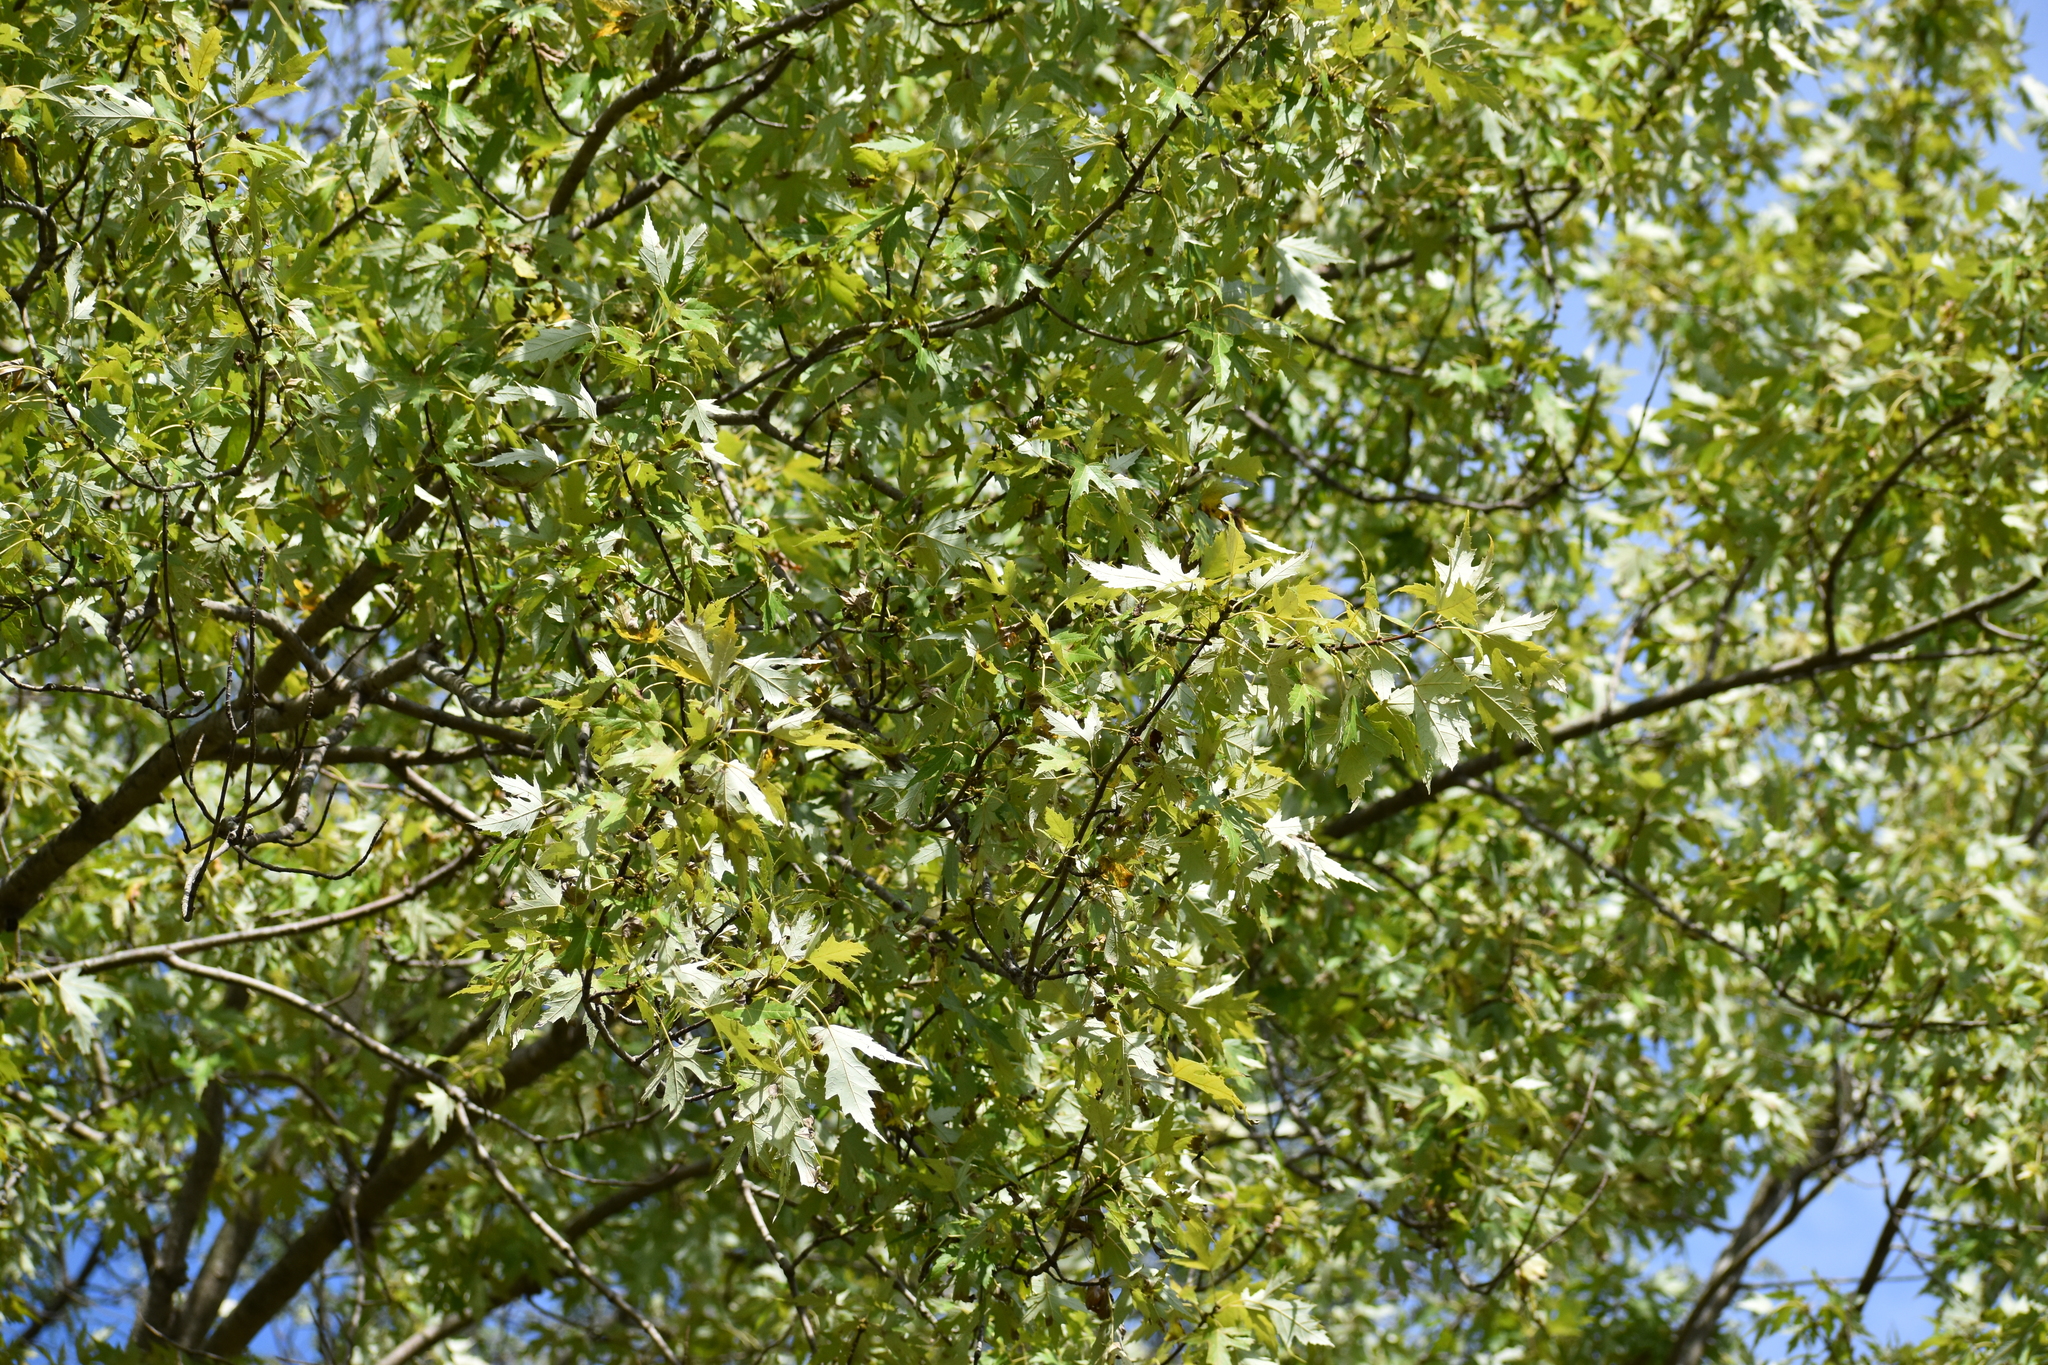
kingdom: Plantae
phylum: Tracheophyta
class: Magnoliopsida
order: Sapindales
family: Sapindaceae
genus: Acer
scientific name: Acer saccharinum
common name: Silver maple
